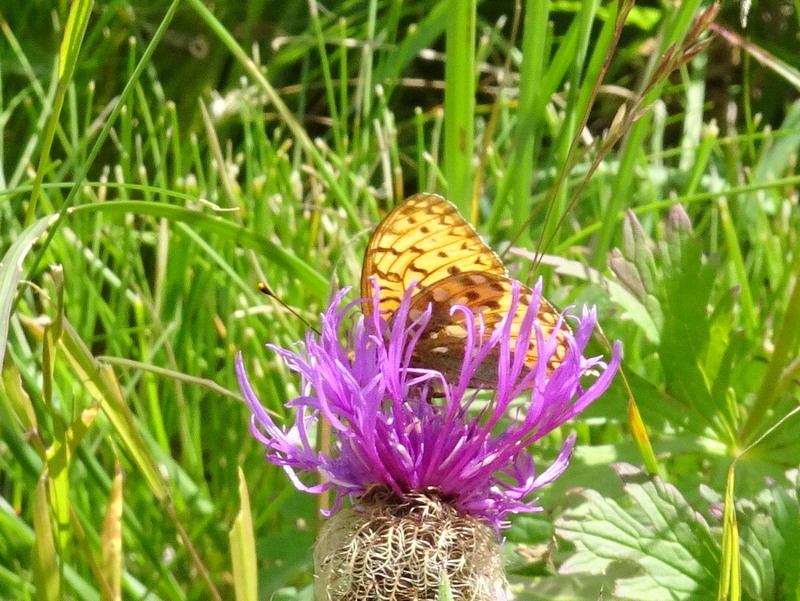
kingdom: Animalia
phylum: Arthropoda
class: Insecta
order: Lepidoptera
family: Nymphalidae
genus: Speyeria
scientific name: Speyeria aglaja
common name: Dark green fritillary
